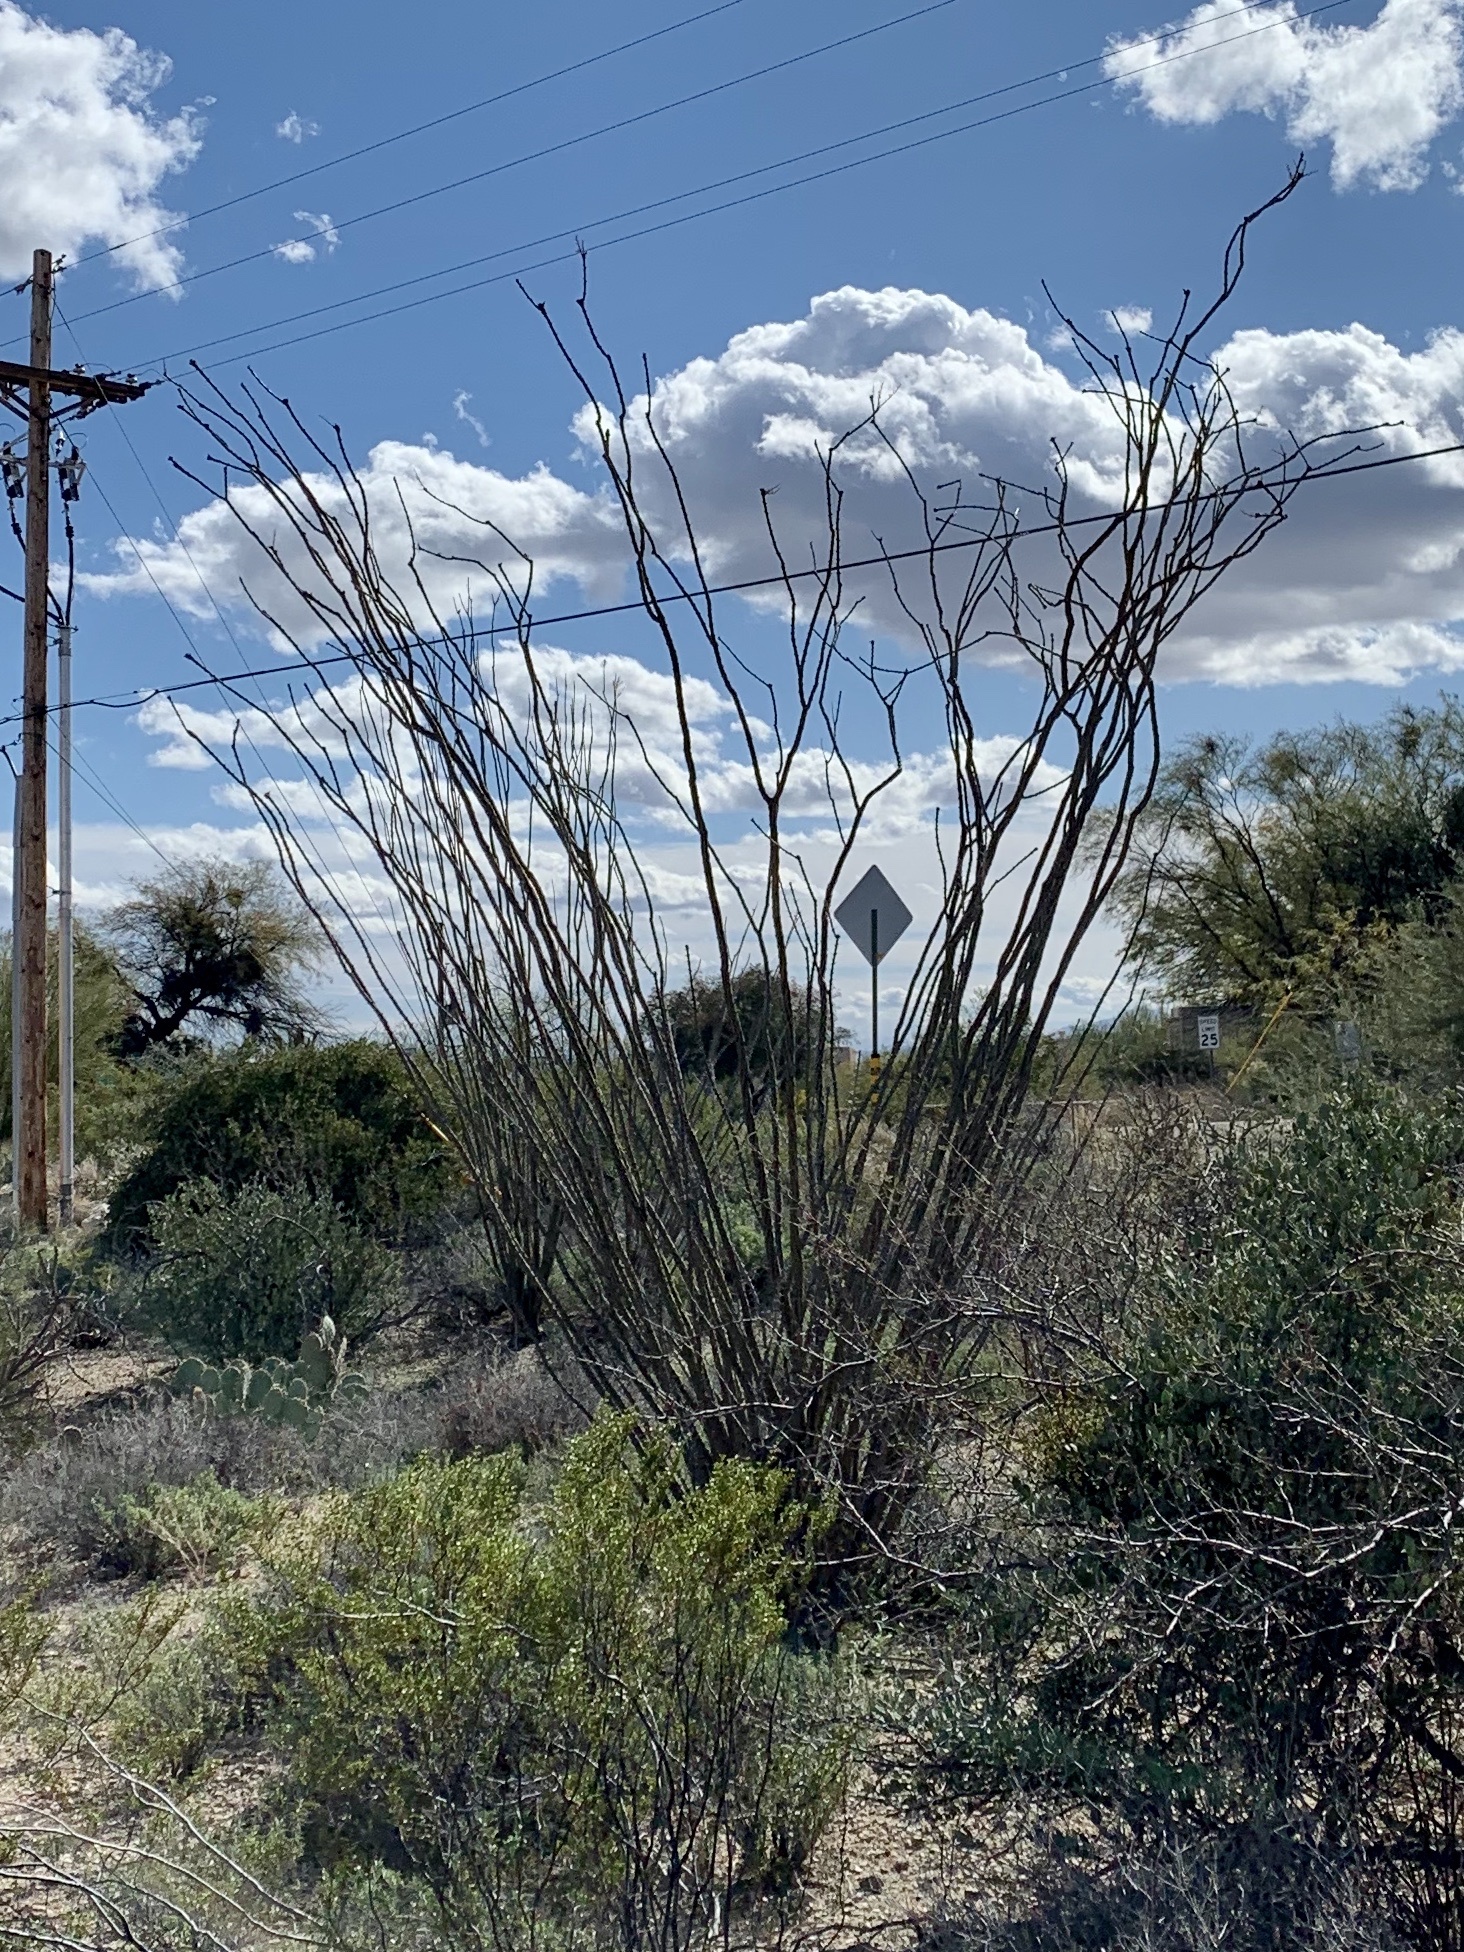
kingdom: Plantae
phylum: Tracheophyta
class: Magnoliopsida
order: Ericales
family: Fouquieriaceae
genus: Fouquieria
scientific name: Fouquieria splendens
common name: Vine-cactus
